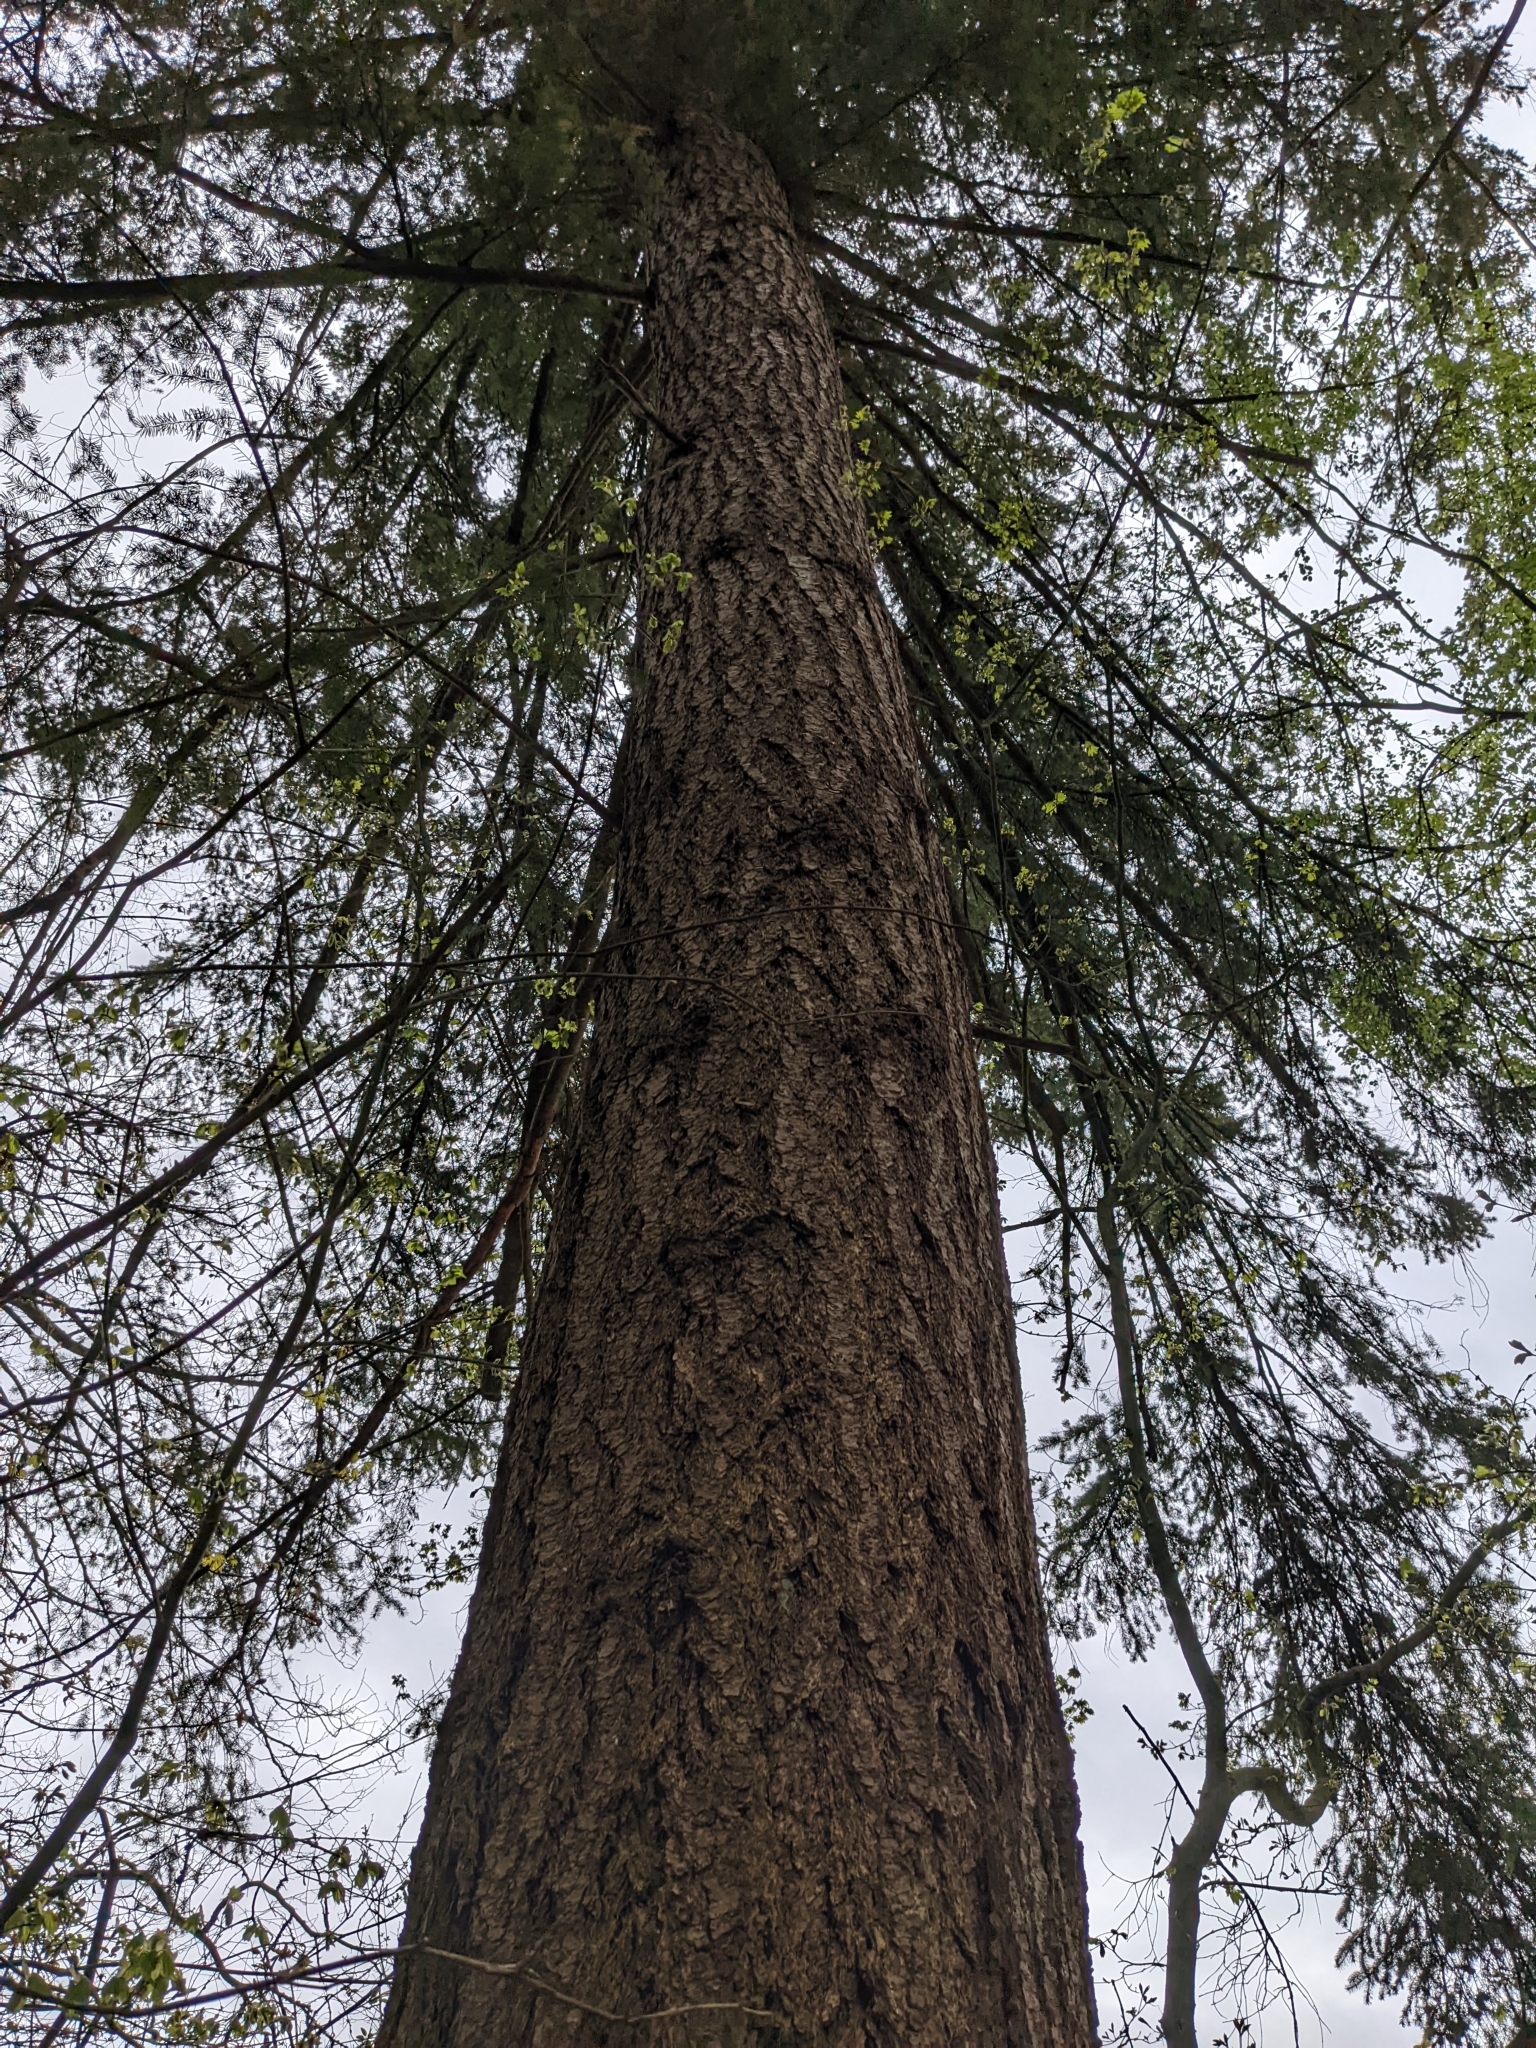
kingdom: Plantae
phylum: Tracheophyta
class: Pinopsida
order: Pinales
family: Pinaceae
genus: Pseudotsuga
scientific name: Pseudotsuga menziesii
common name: Douglas fir
